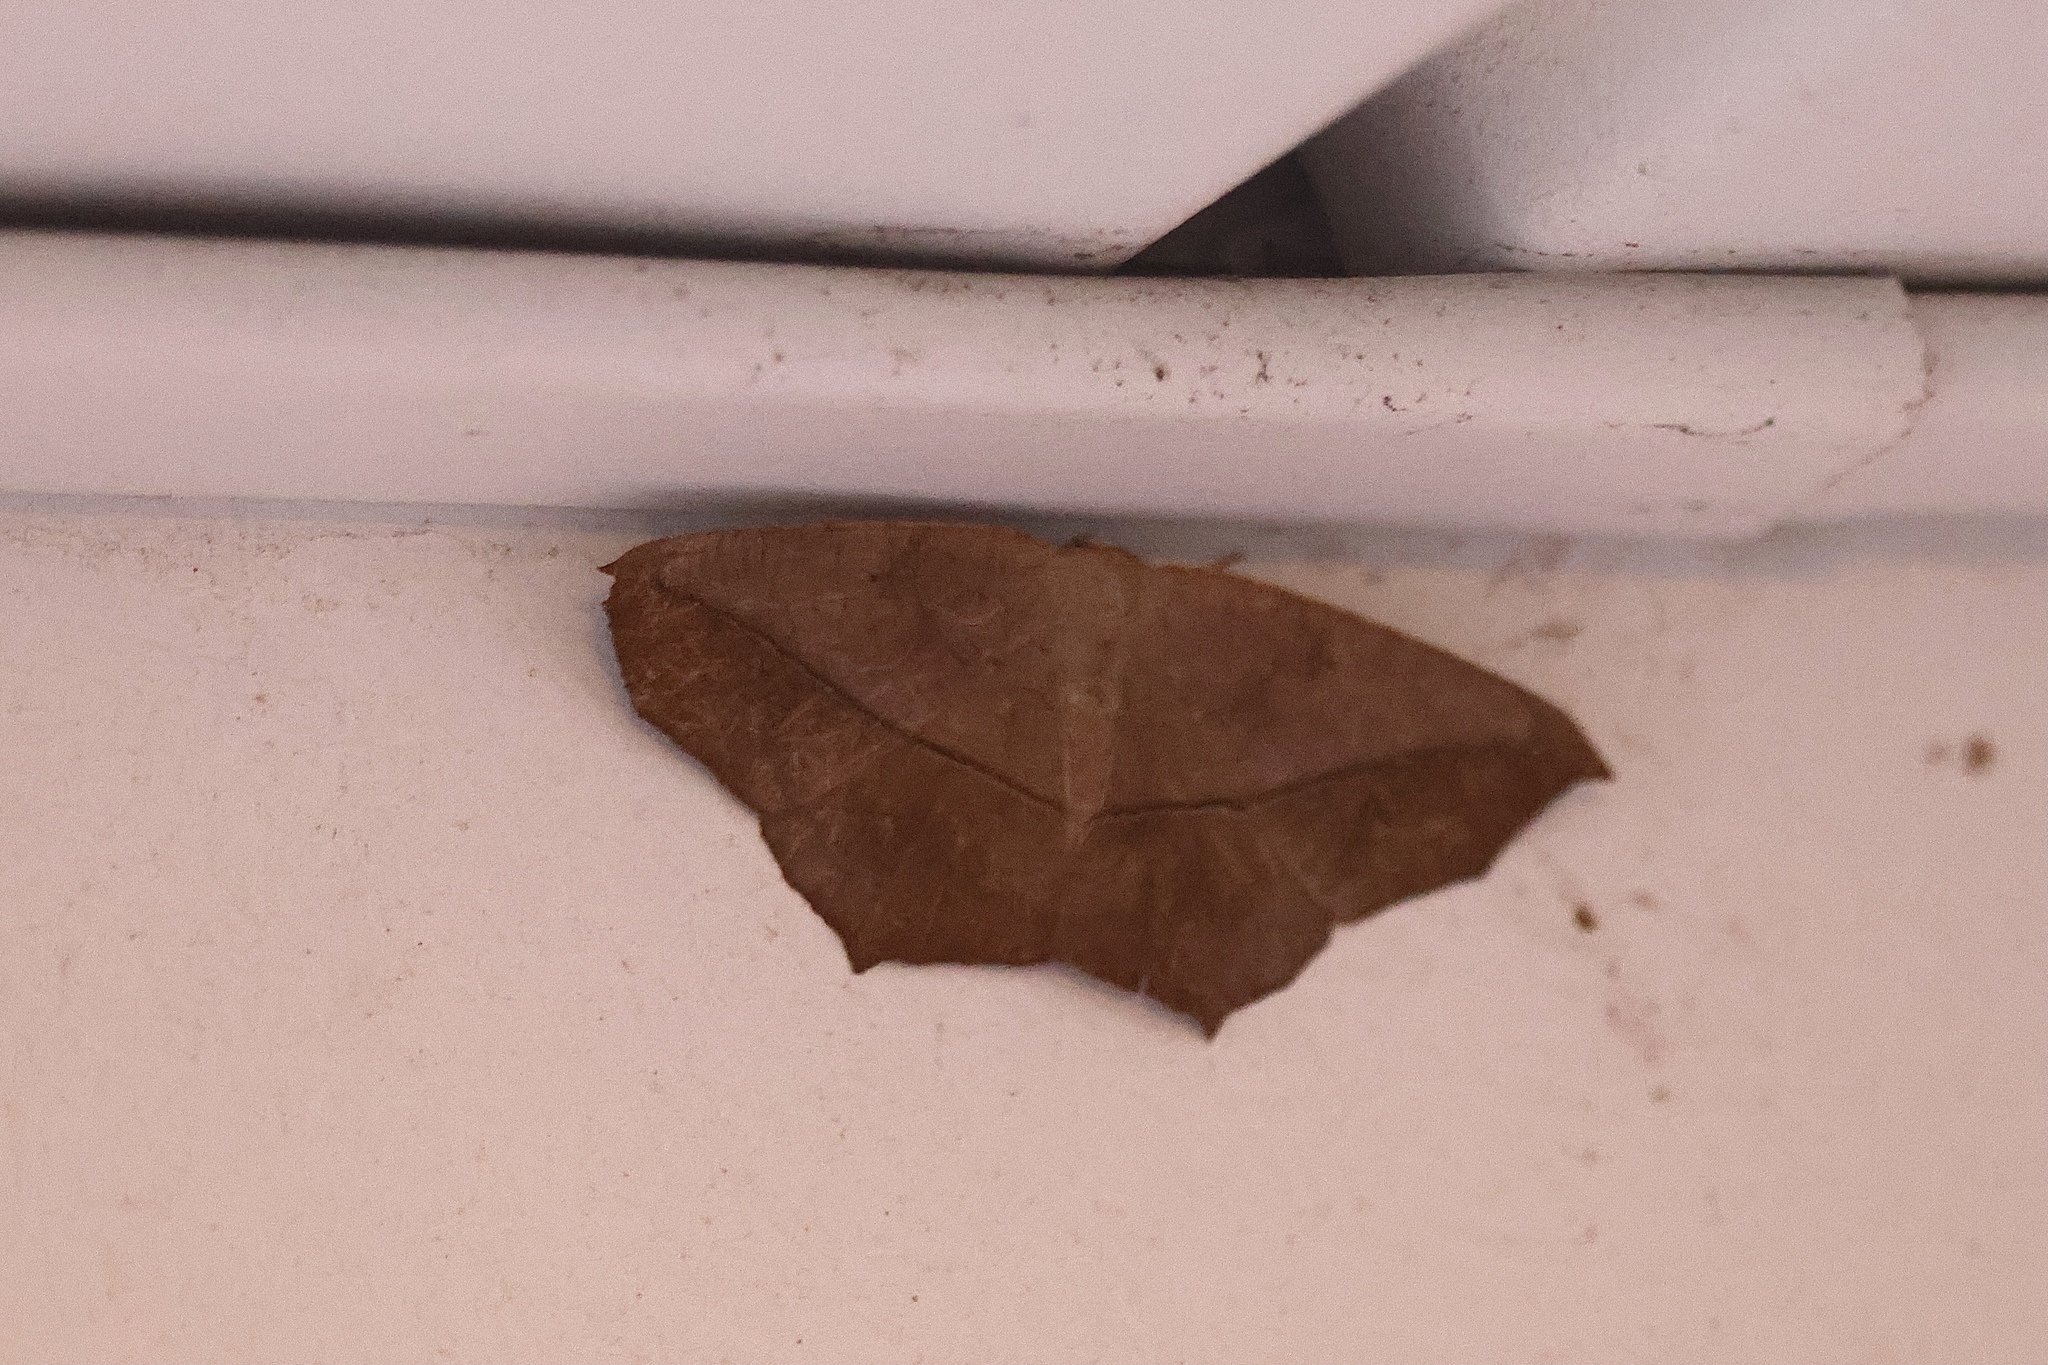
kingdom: Animalia
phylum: Arthropoda
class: Insecta
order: Lepidoptera
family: Geometridae
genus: Prochoerodes
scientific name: Prochoerodes lineola
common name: Large maple spanworm
